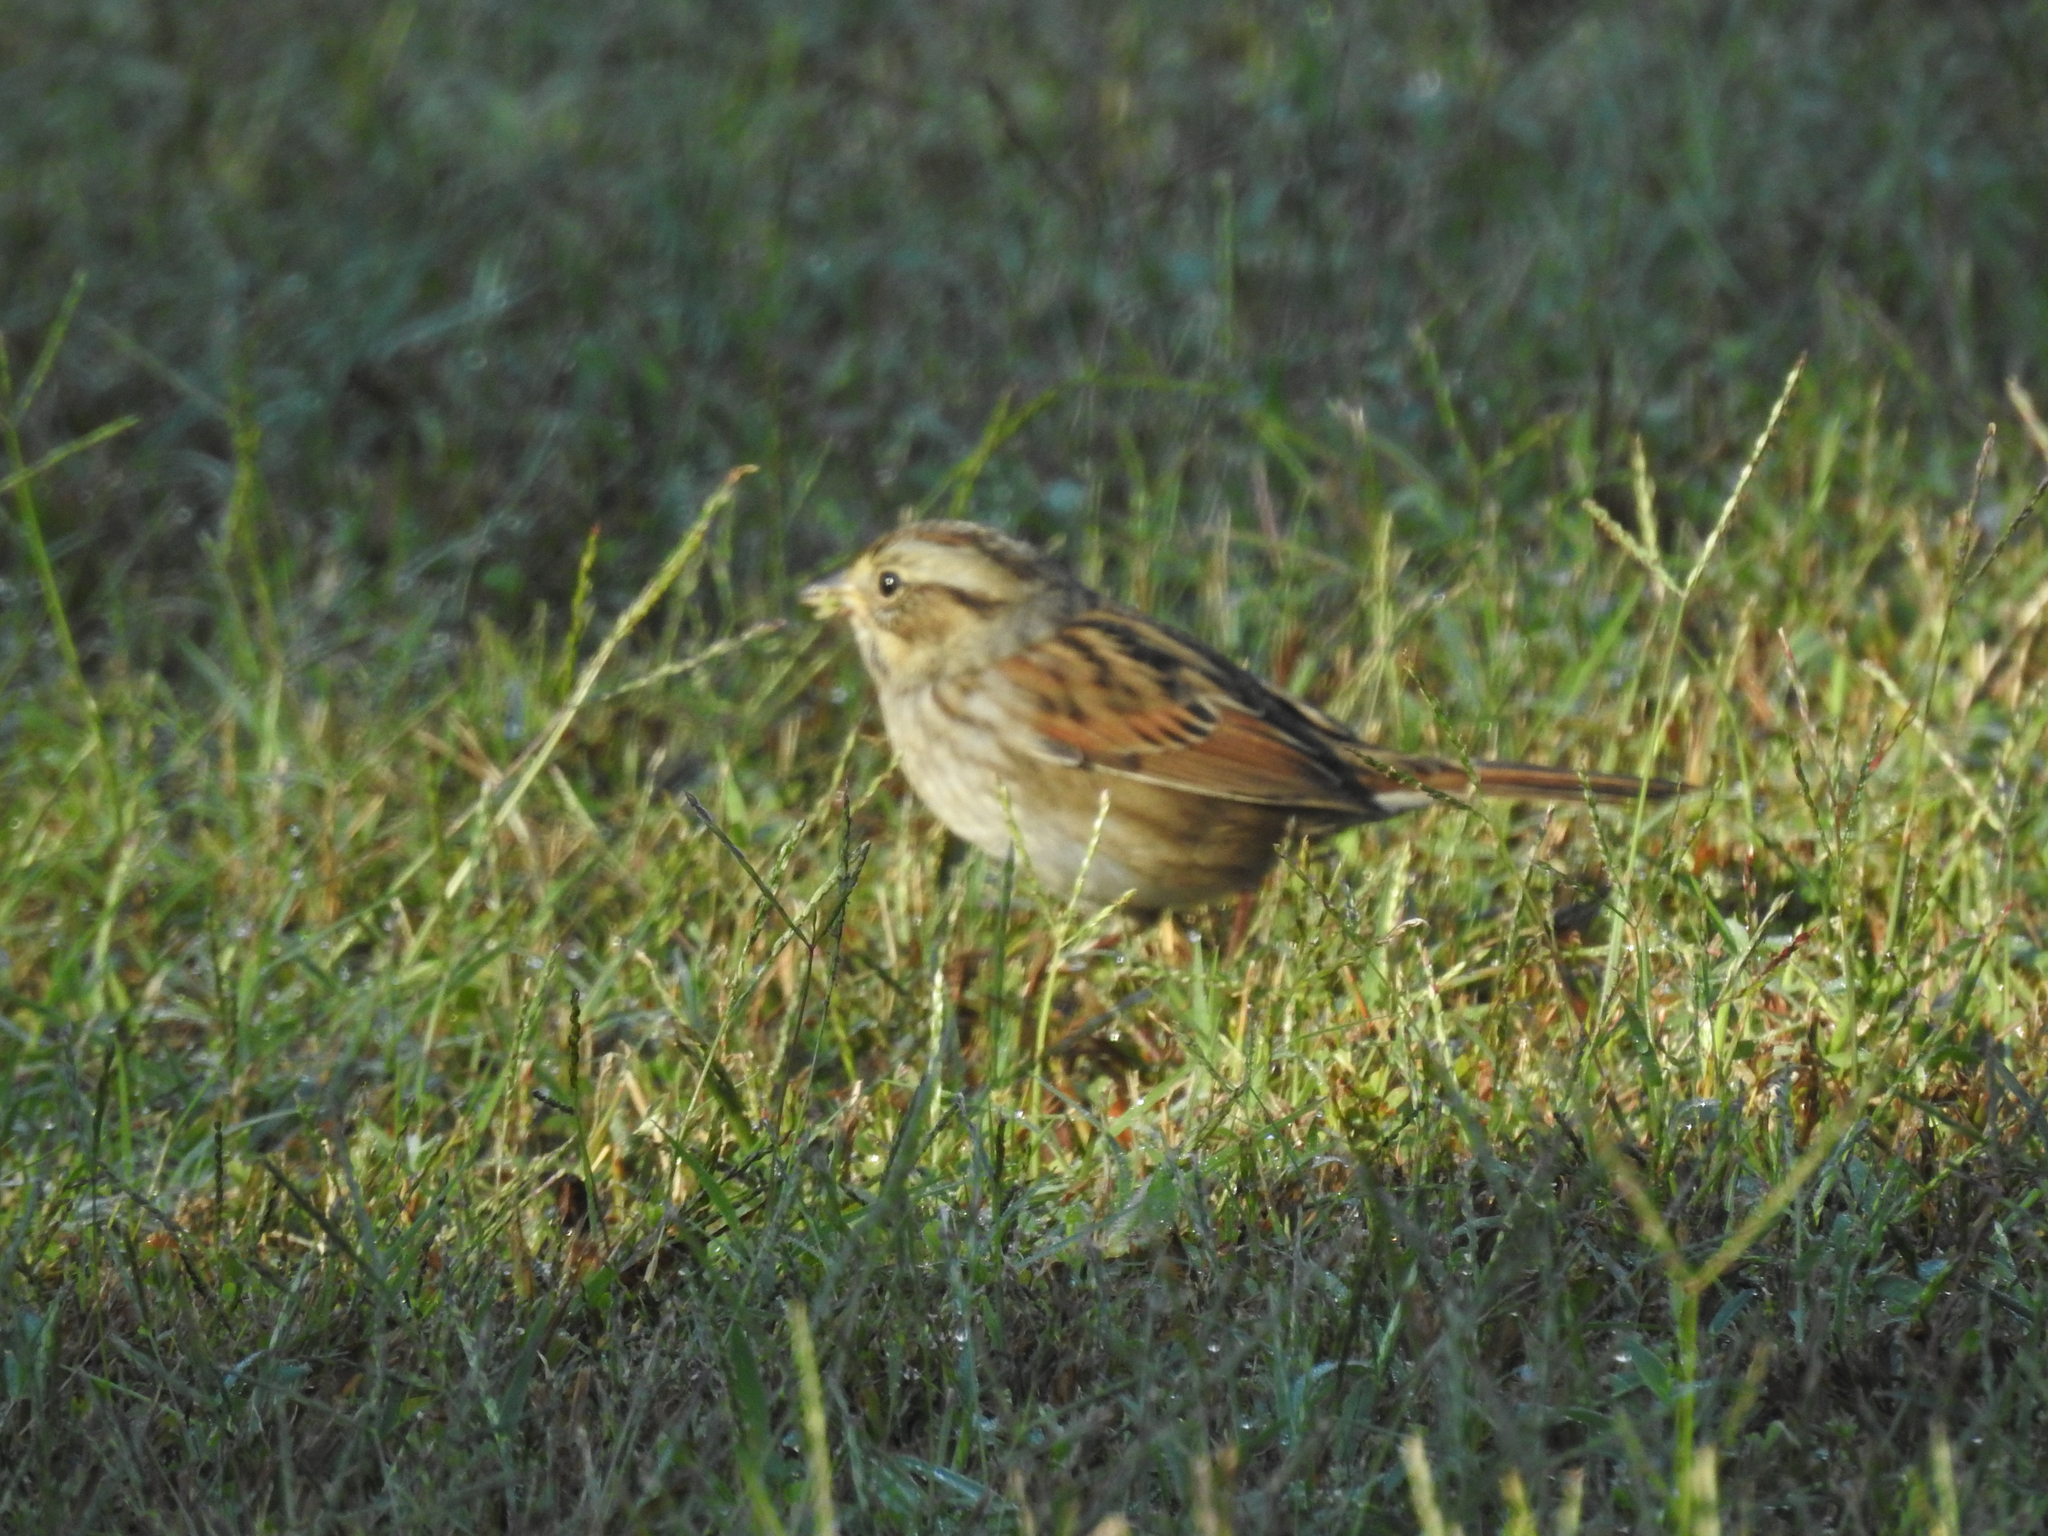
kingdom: Animalia
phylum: Chordata
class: Aves
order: Passeriformes
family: Passerellidae
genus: Melospiza
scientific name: Melospiza georgiana
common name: Swamp sparrow
